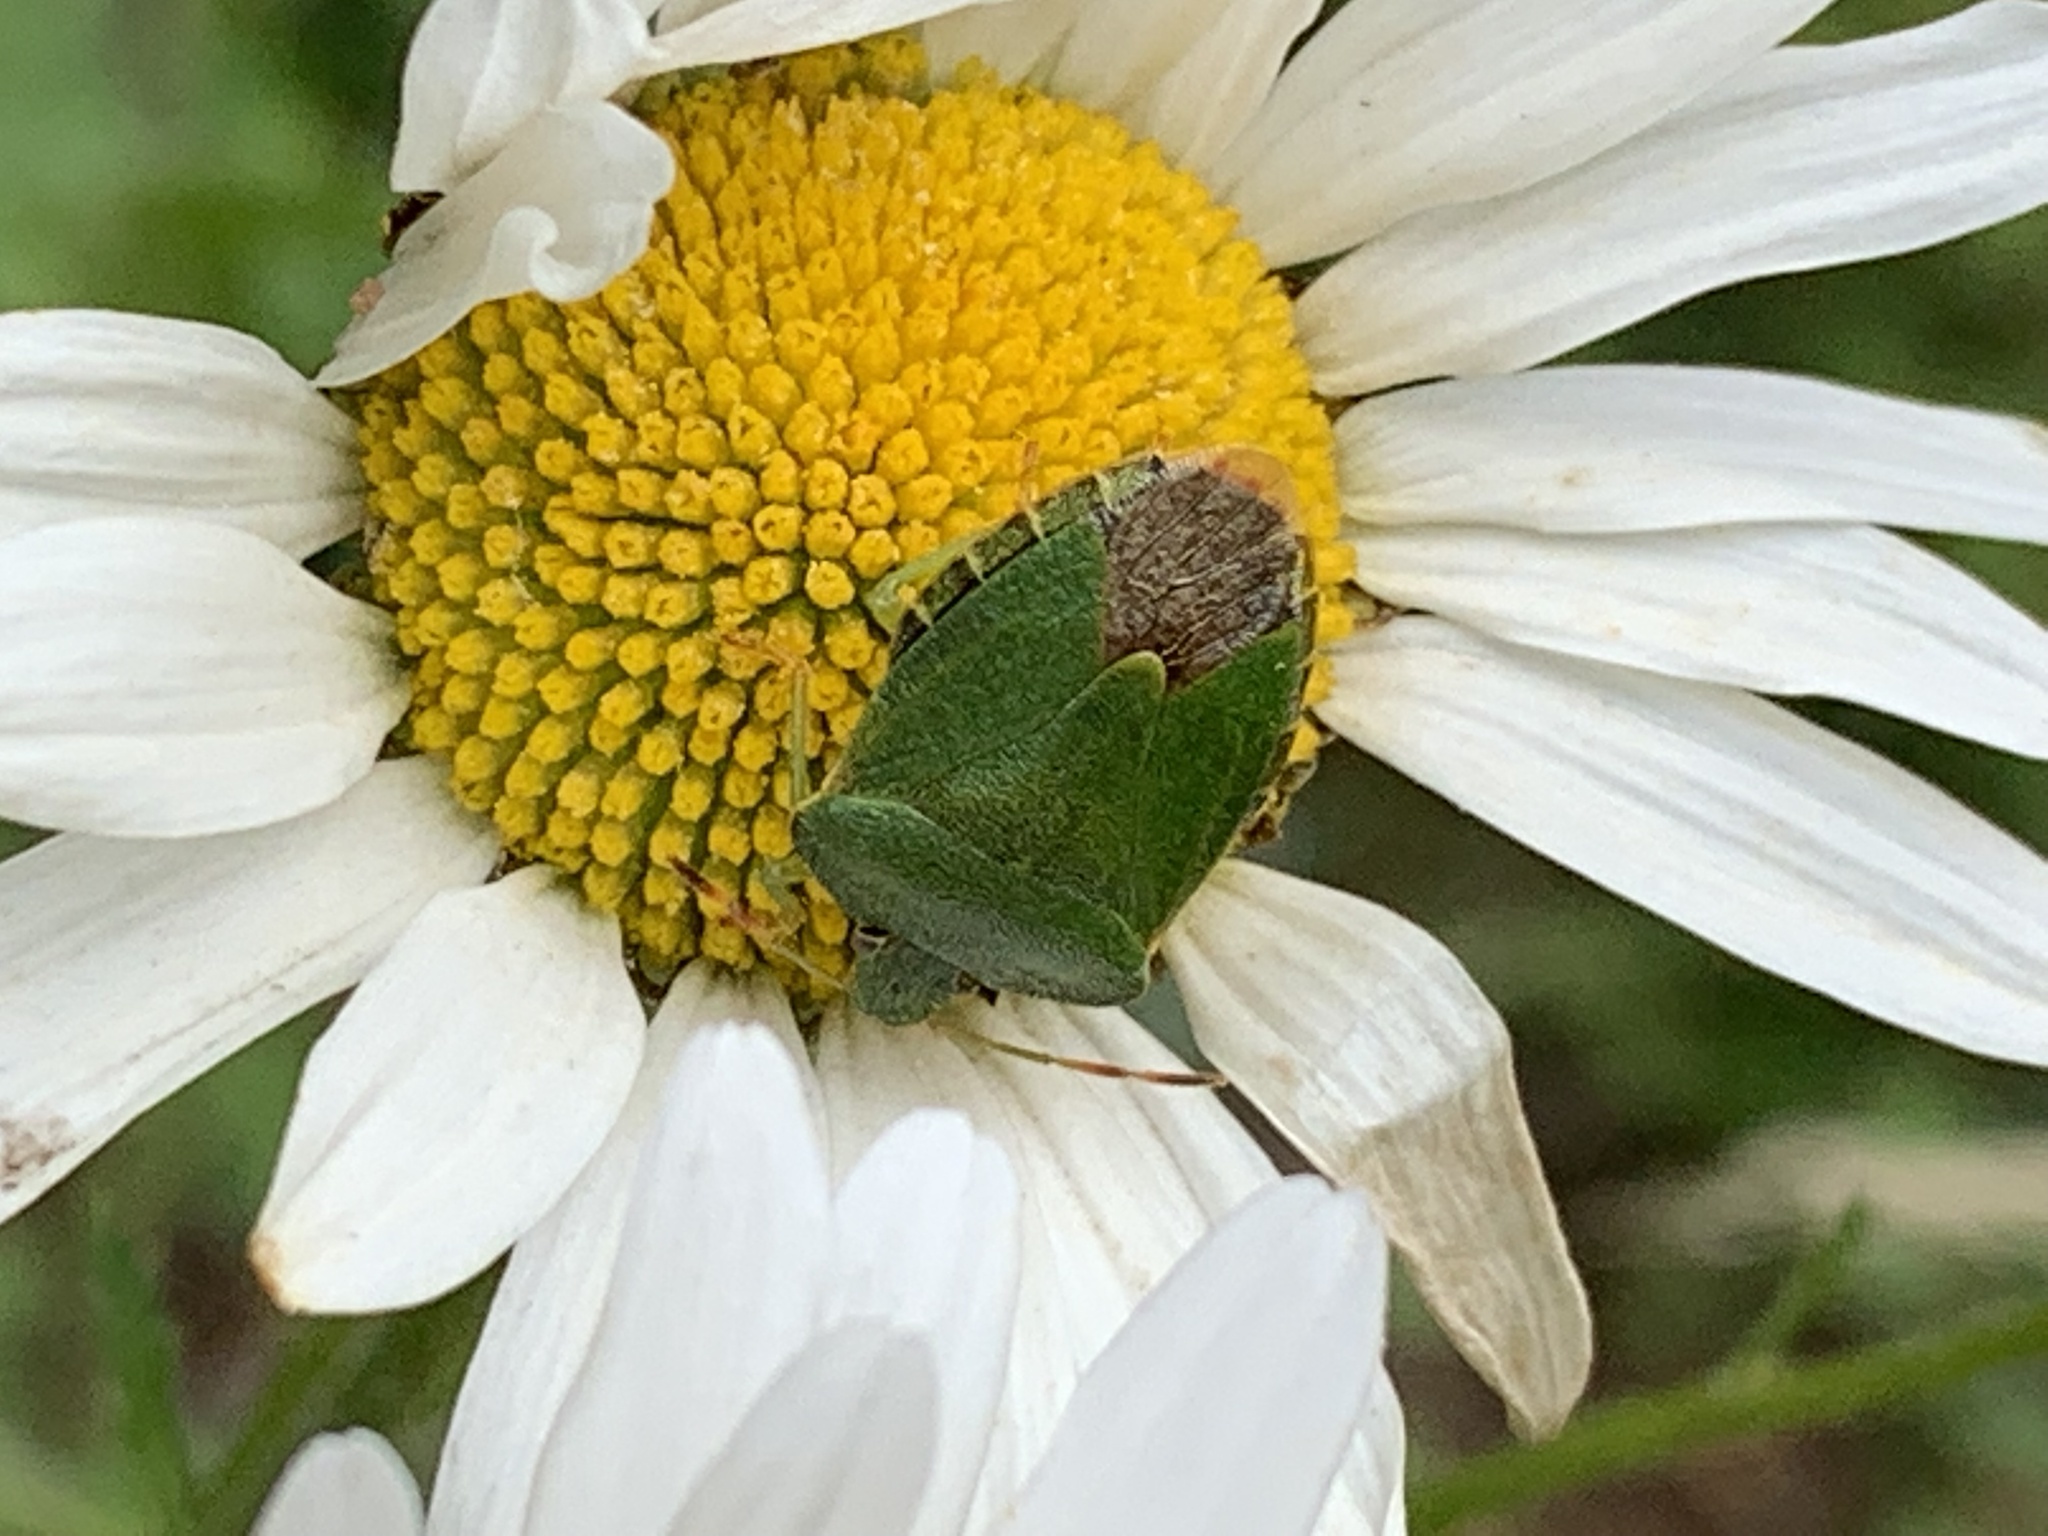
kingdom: Animalia
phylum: Arthropoda
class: Insecta
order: Hemiptera
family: Pentatomidae
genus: Palomena
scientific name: Palomena prasina
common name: Green shieldbug
